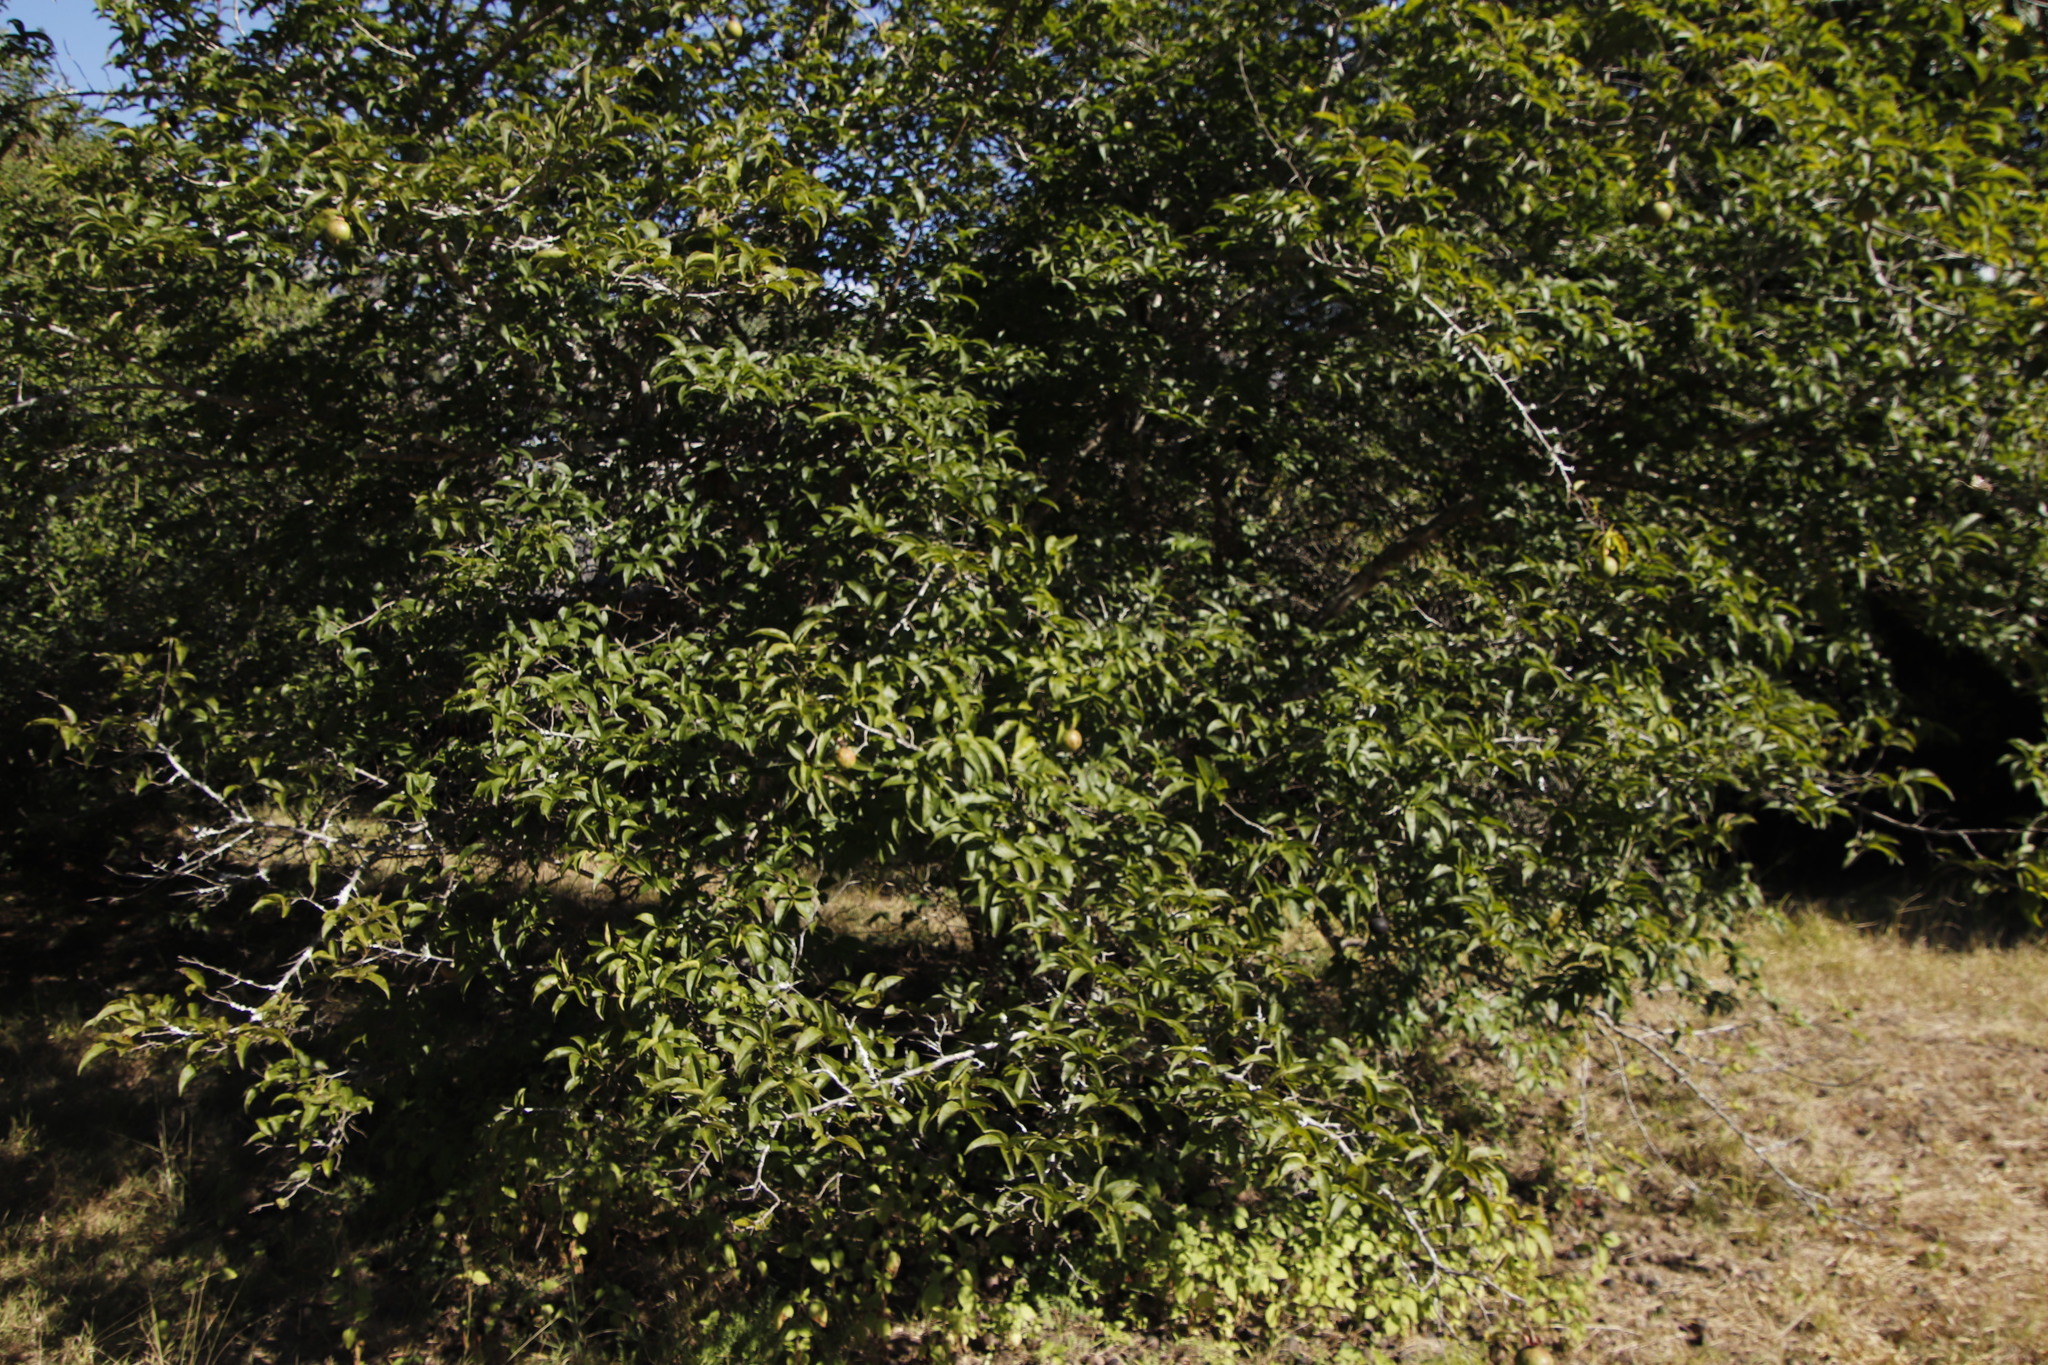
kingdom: Plantae
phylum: Tracheophyta
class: Magnoliopsida
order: Malpighiales
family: Salicaceae
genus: Oncoba
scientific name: Oncoba spinosa
